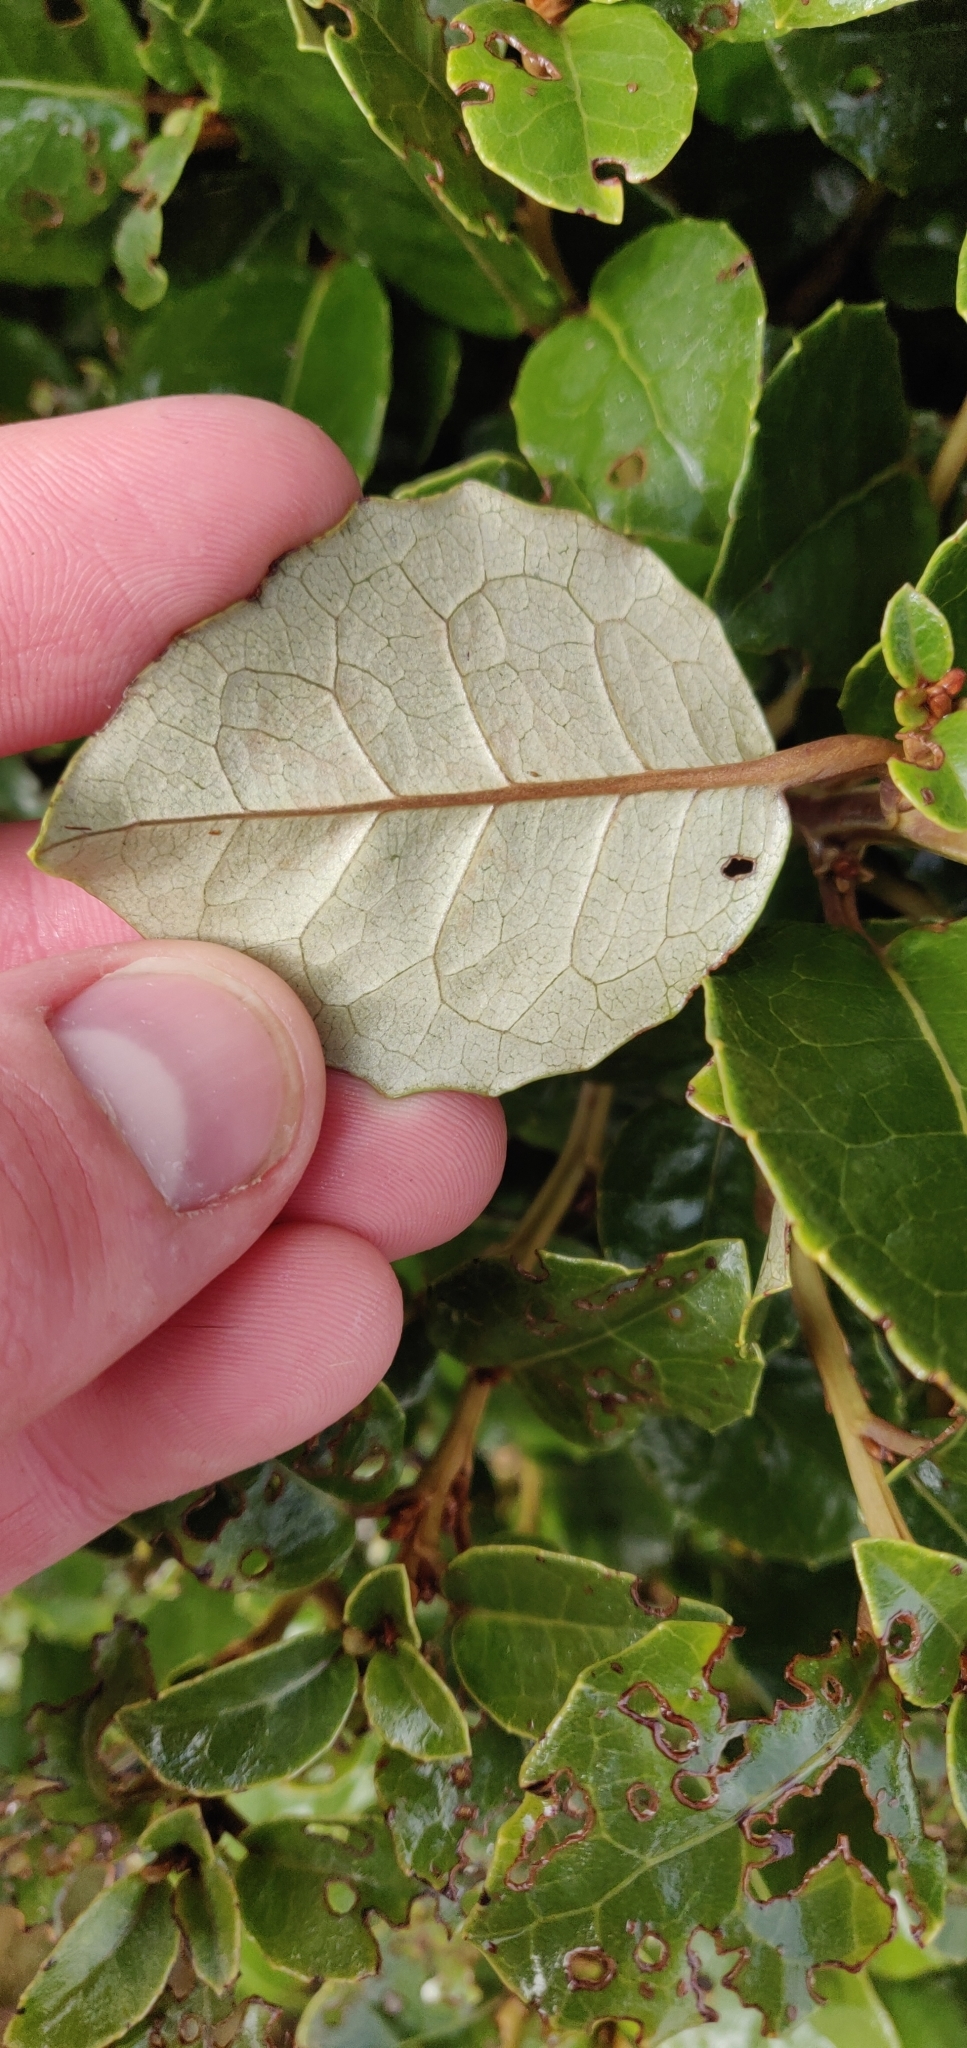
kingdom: Plantae
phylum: Tracheophyta
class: Magnoliopsida
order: Asterales
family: Asteraceae
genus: Olearia
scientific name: Olearia arborescens
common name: Glossy tree daisy
